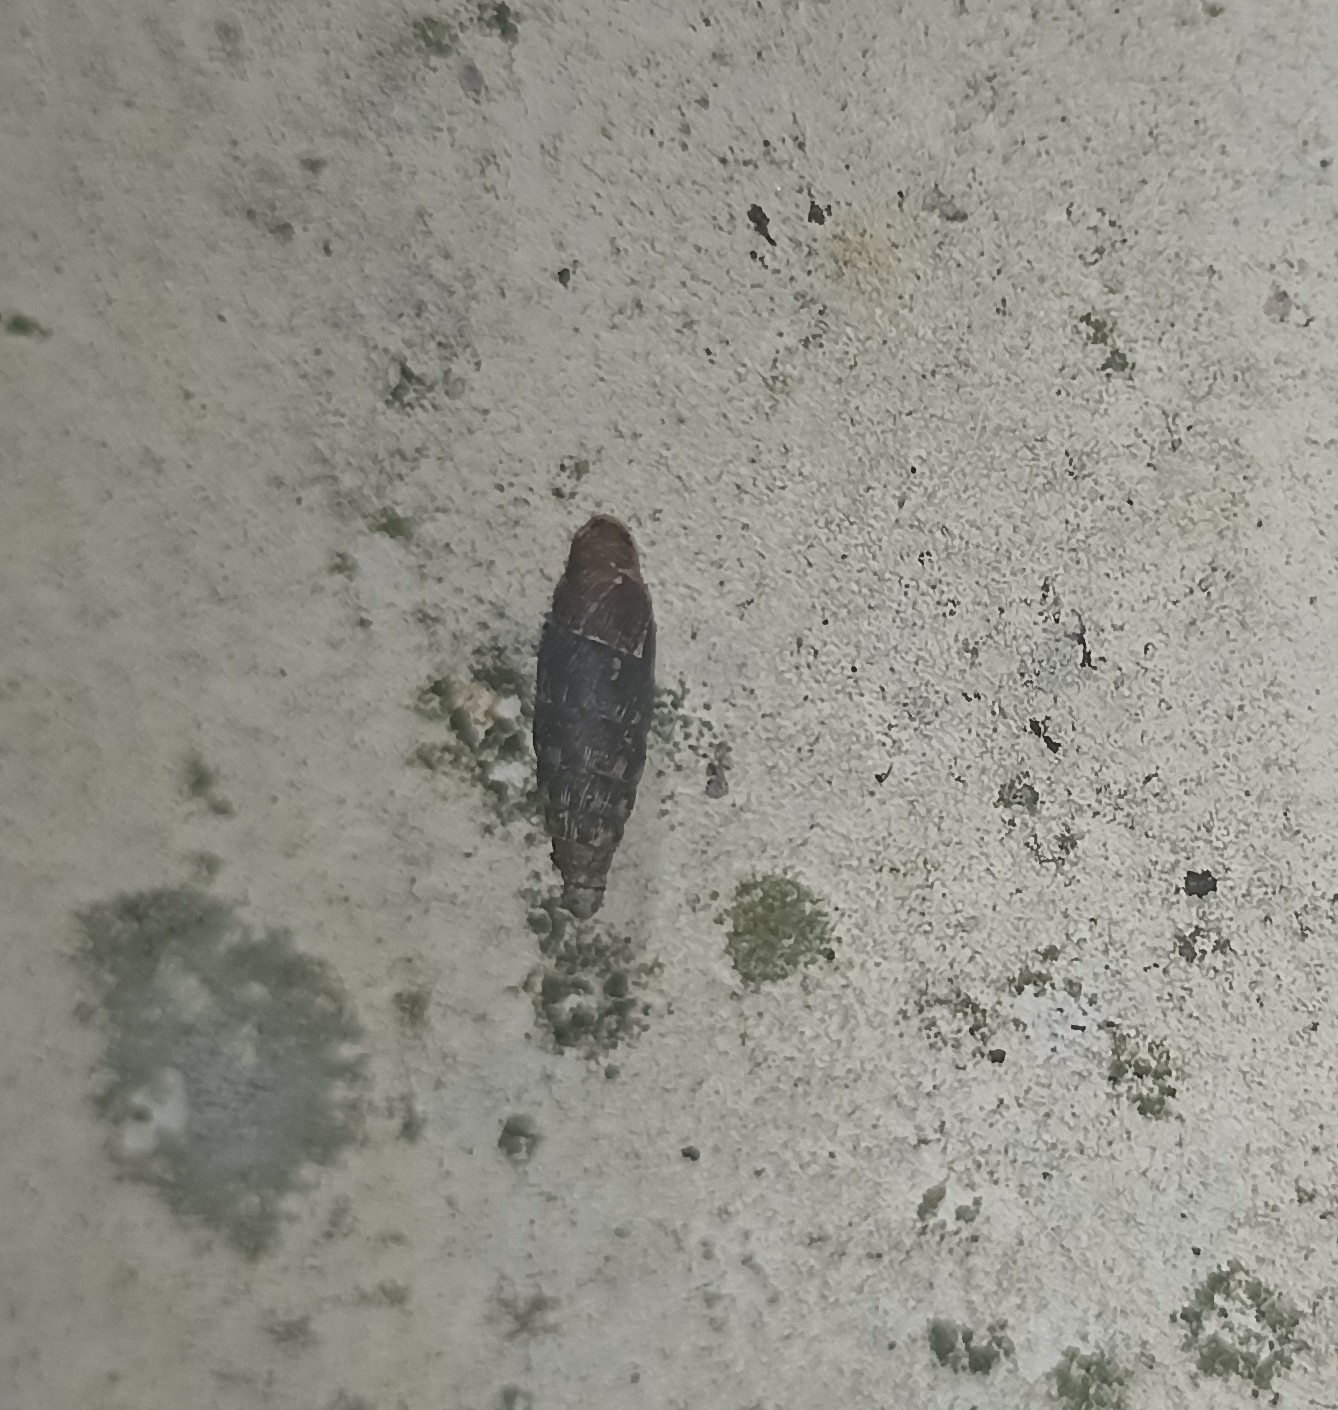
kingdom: Animalia
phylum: Mollusca
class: Gastropoda
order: Stylommatophora
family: Clausiliidae
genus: Clausilia
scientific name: Clausilia bidentata
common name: Two-toothed door snail
